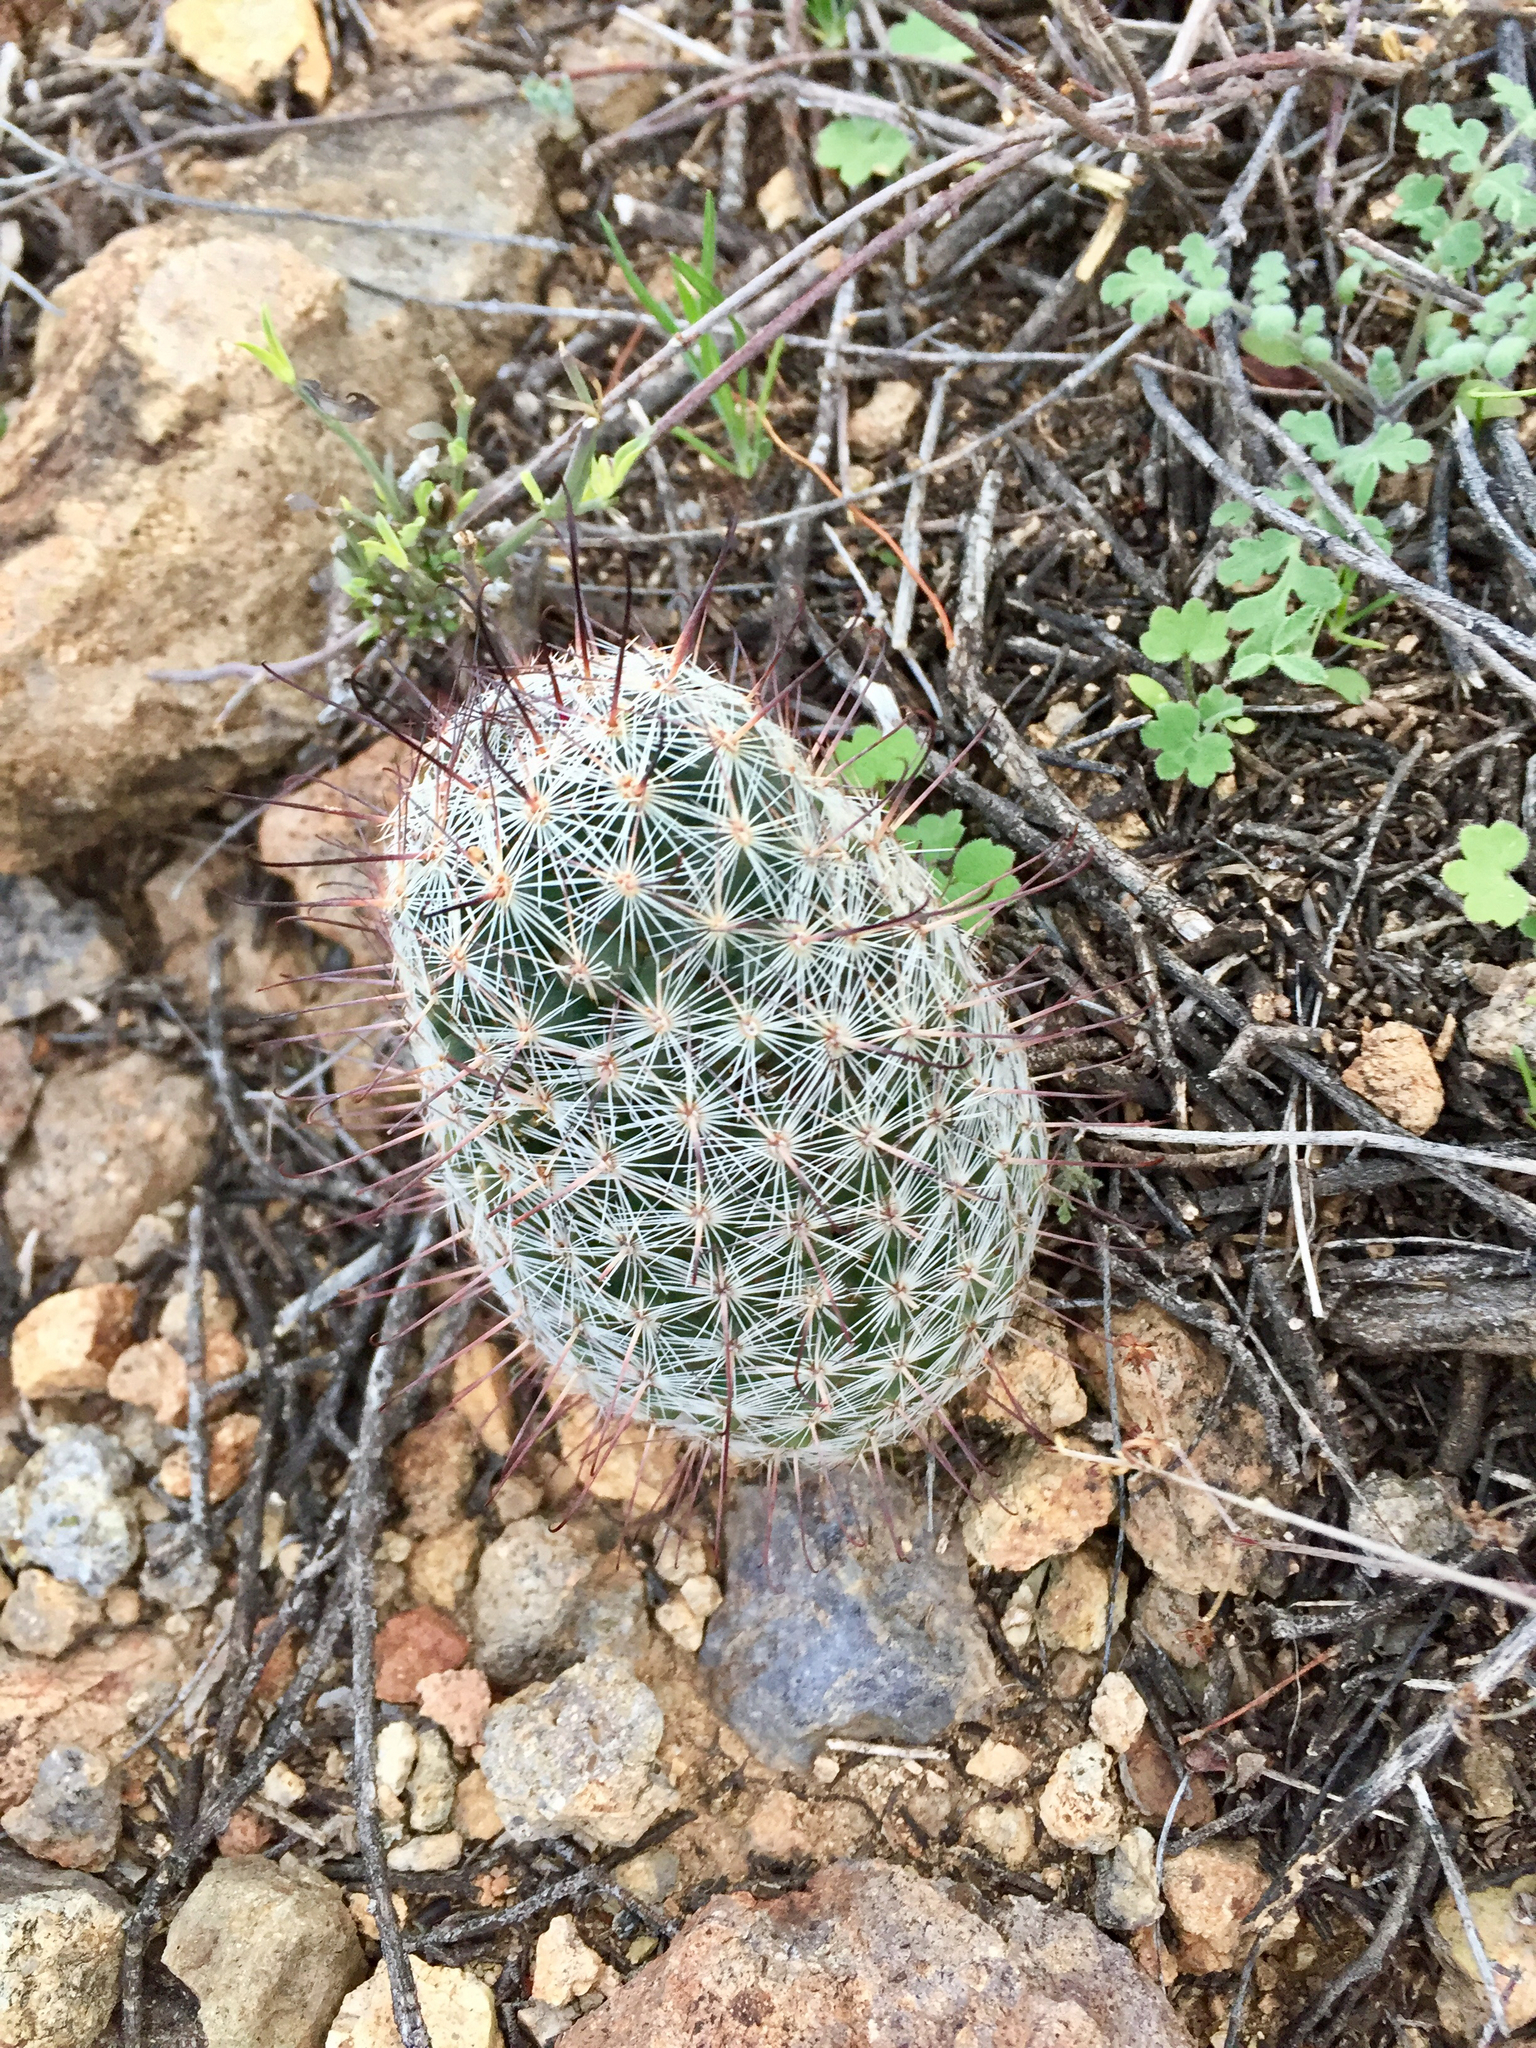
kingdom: Plantae
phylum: Tracheophyta
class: Magnoliopsida
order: Caryophyllales
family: Cactaceae
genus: Cochemiea
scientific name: Cochemiea grahamii
